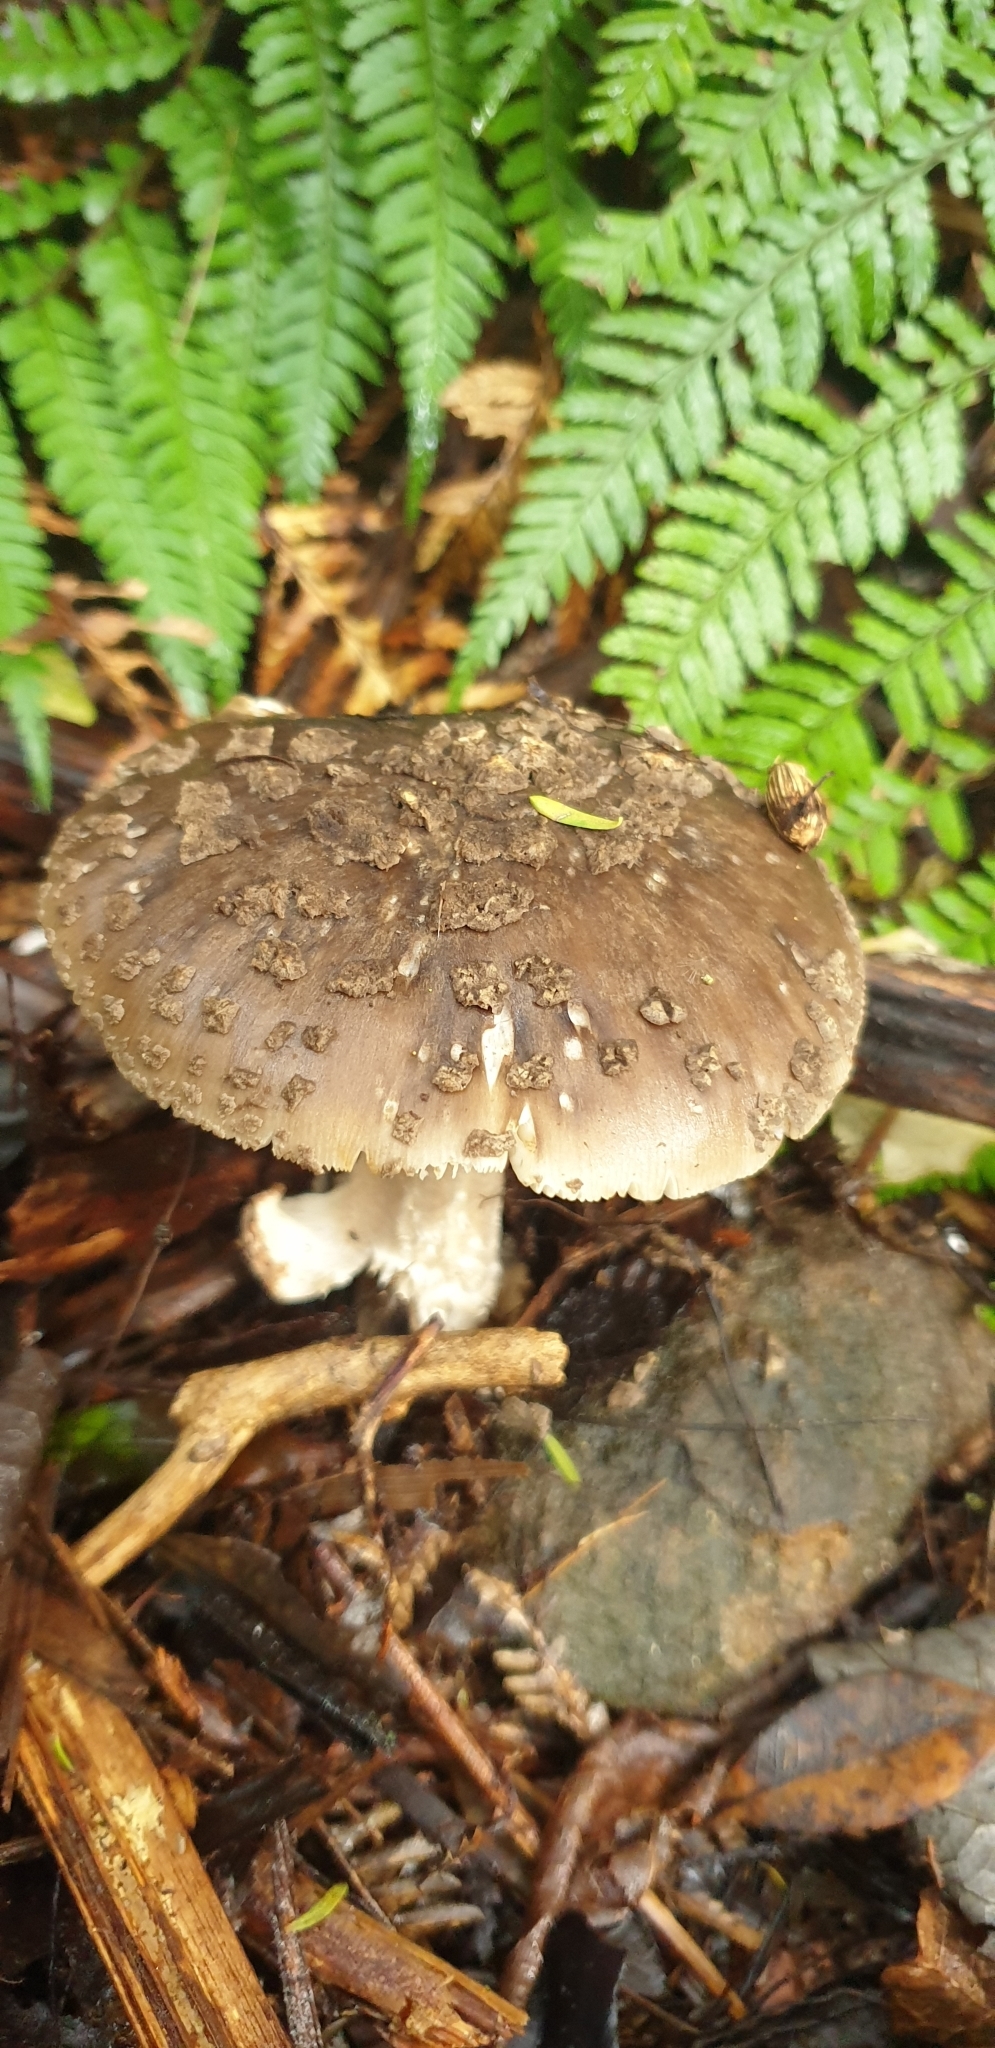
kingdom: Fungi
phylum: Basidiomycota
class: Agaricomycetes
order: Agaricales
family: Amanitaceae
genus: Amanita
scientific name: Amanita nothofagi
